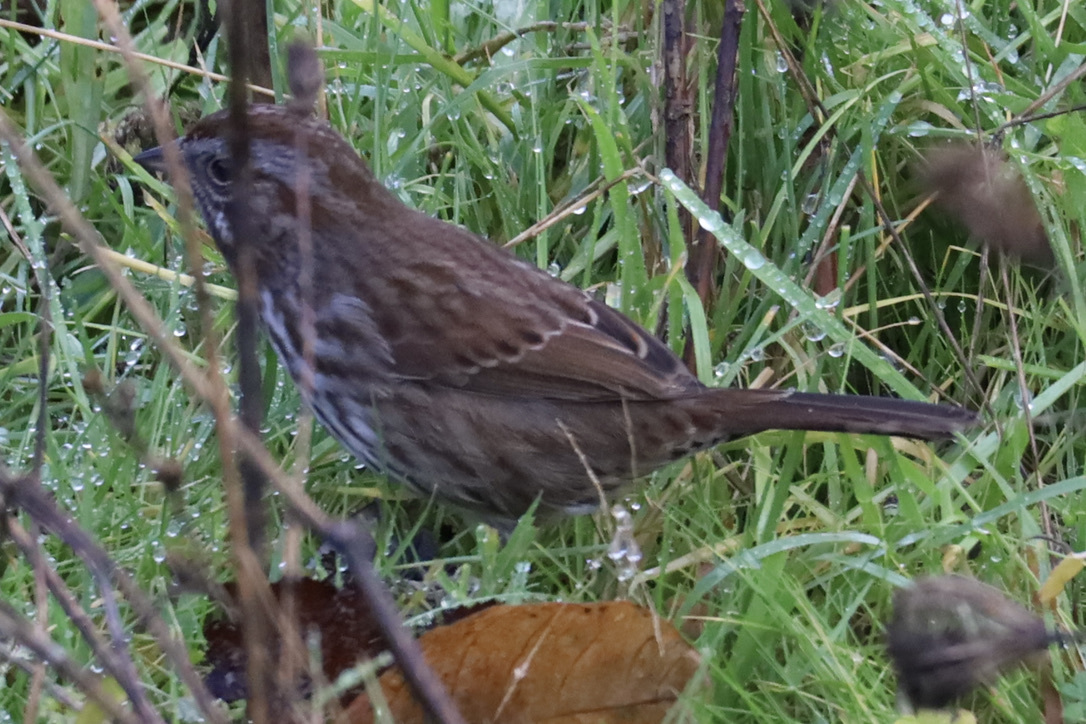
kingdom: Animalia
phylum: Chordata
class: Aves
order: Passeriformes
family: Passerellidae
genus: Melospiza
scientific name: Melospiza melodia
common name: Song sparrow
